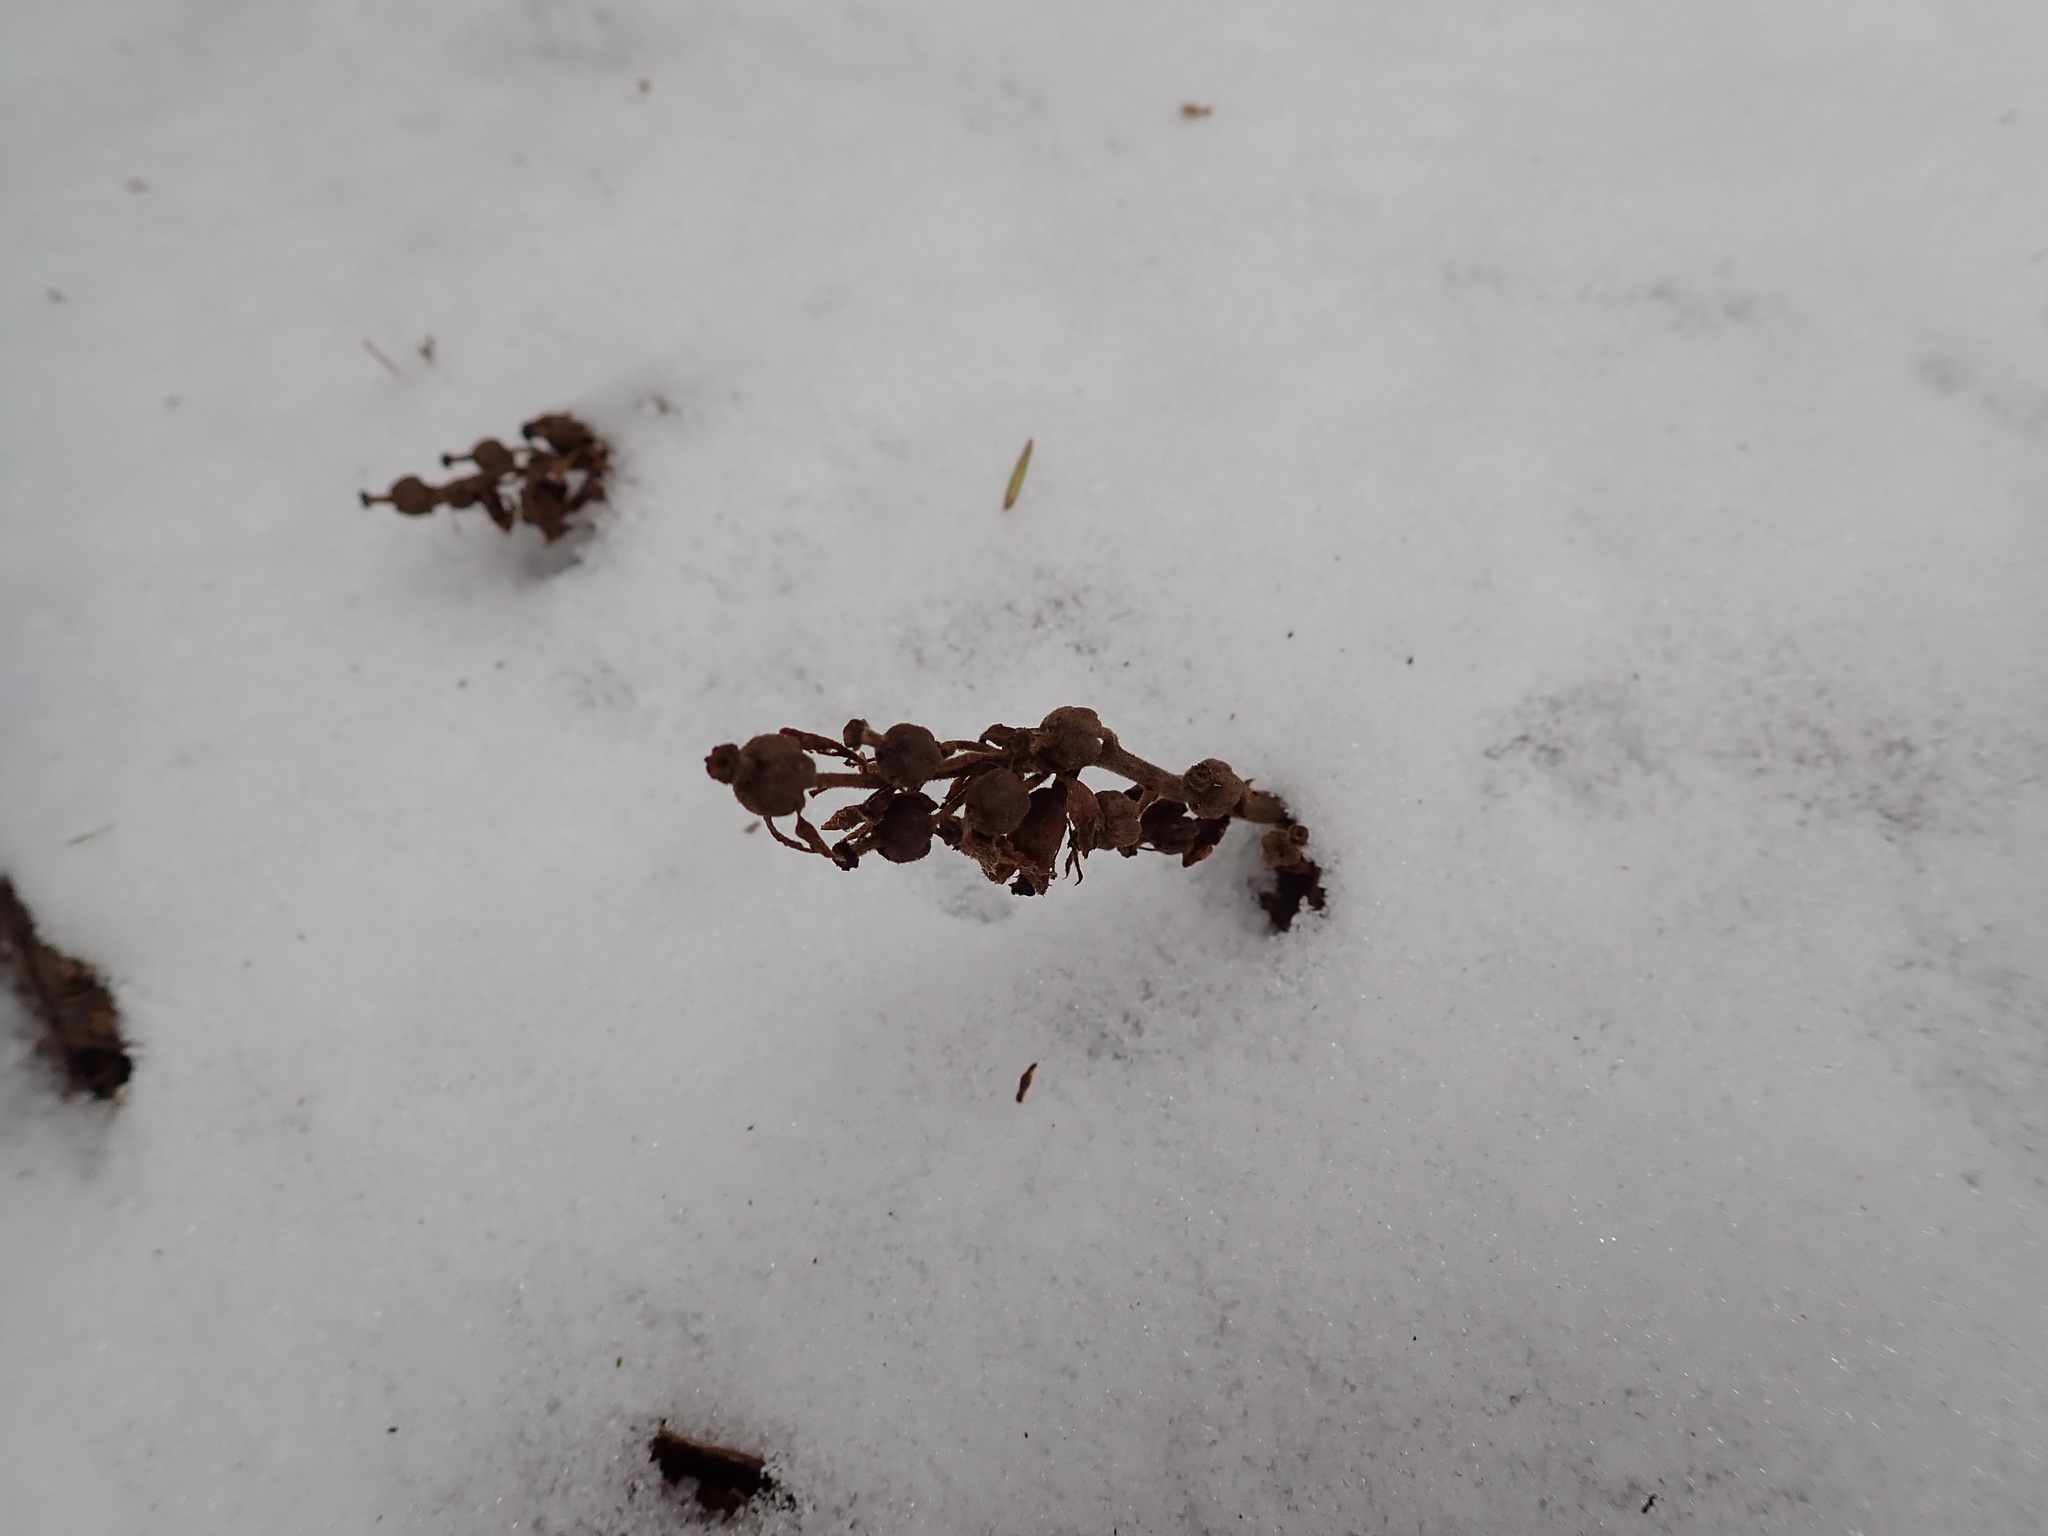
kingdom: Plantae
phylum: Tracheophyta
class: Magnoliopsida
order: Ericales
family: Ericaceae
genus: Hypopitys
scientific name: Hypopitys monotropa
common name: Yellow bird's-nest
